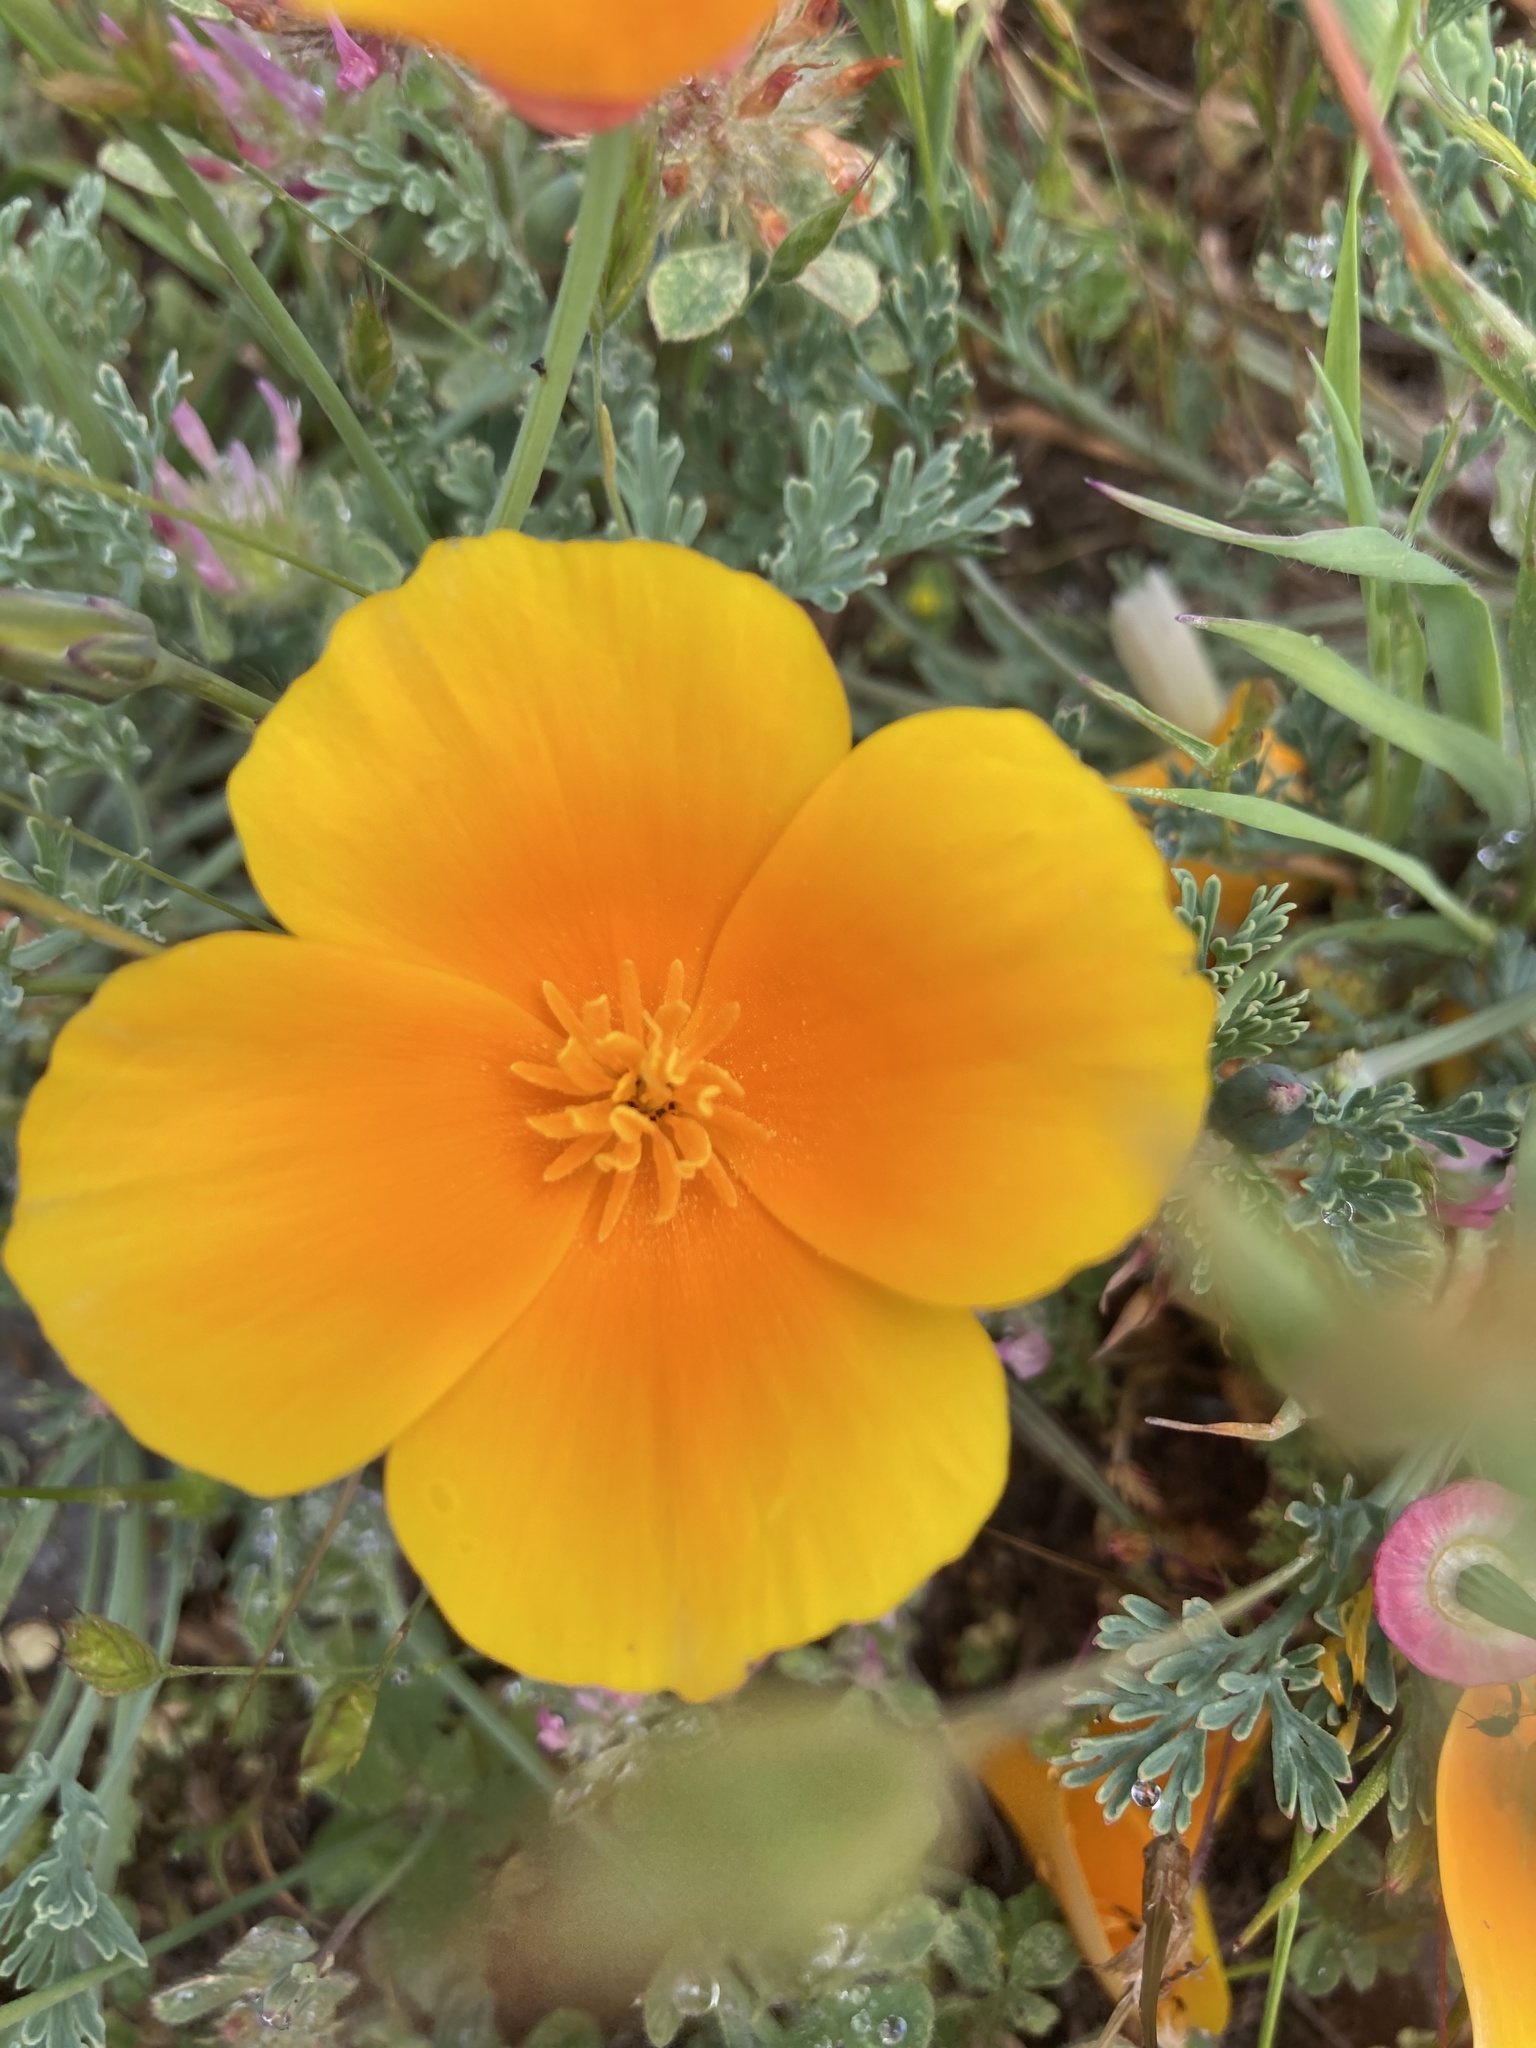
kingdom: Plantae
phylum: Tracheophyta
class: Magnoliopsida
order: Ranunculales
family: Papaveraceae
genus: Eschscholzia
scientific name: Eschscholzia californica
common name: California poppy
